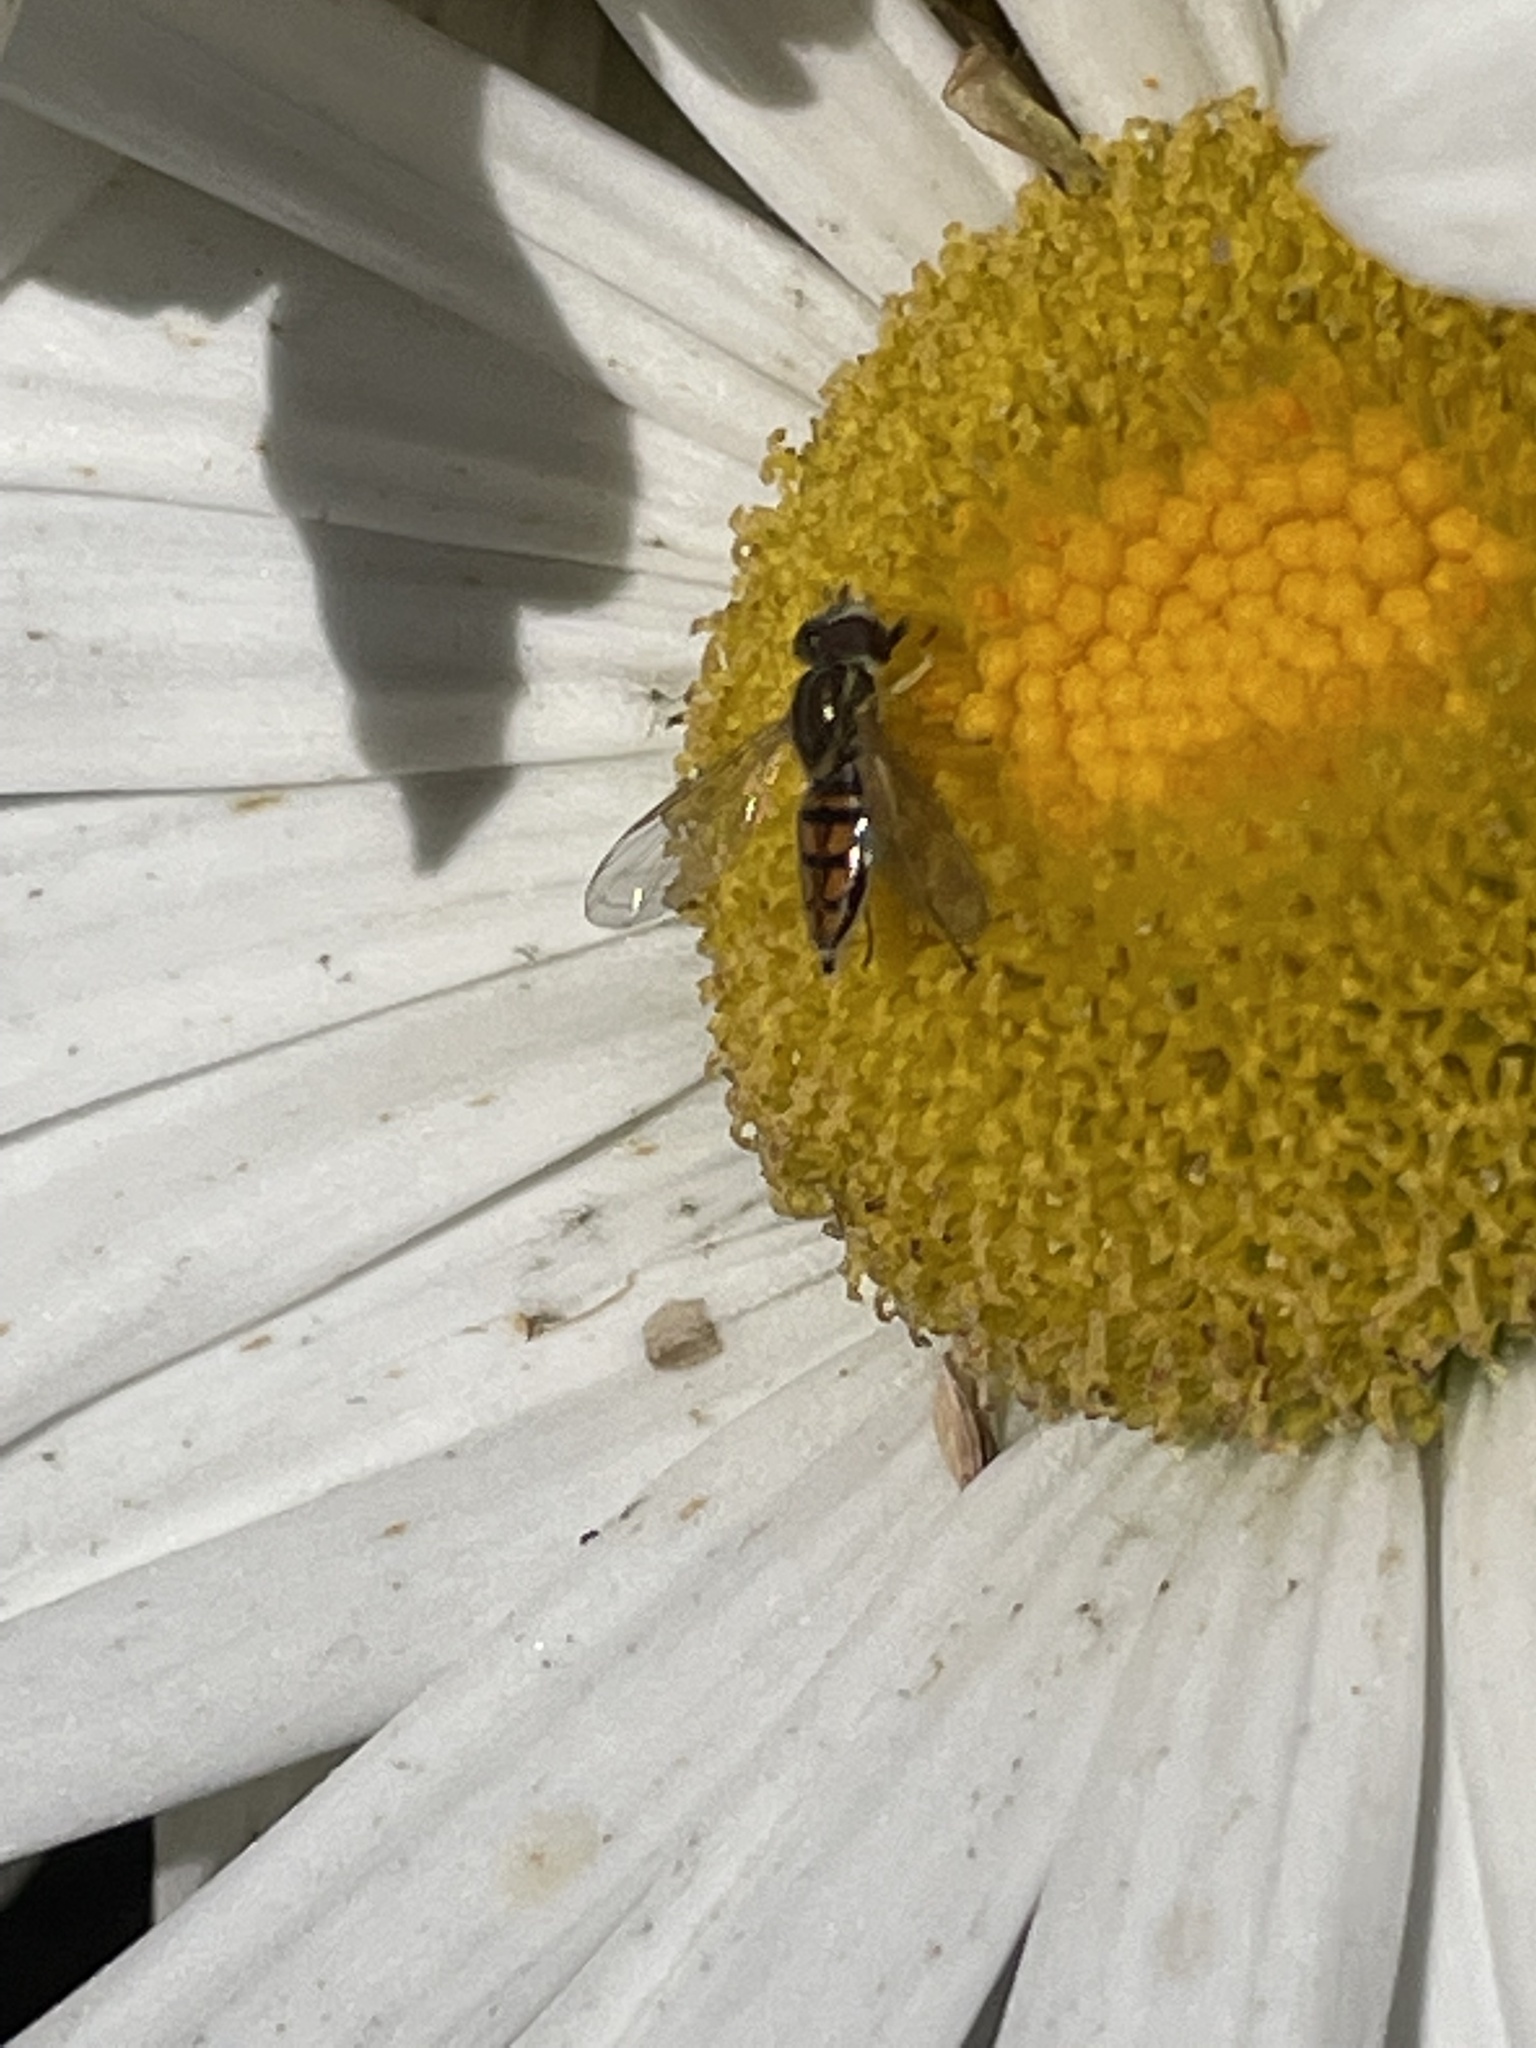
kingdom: Animalia
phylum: Arthropoda
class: Insecta
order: Diptera
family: Syrphidae
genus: Toxomerus
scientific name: Toxomerus marginatus
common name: Syrphid fly
